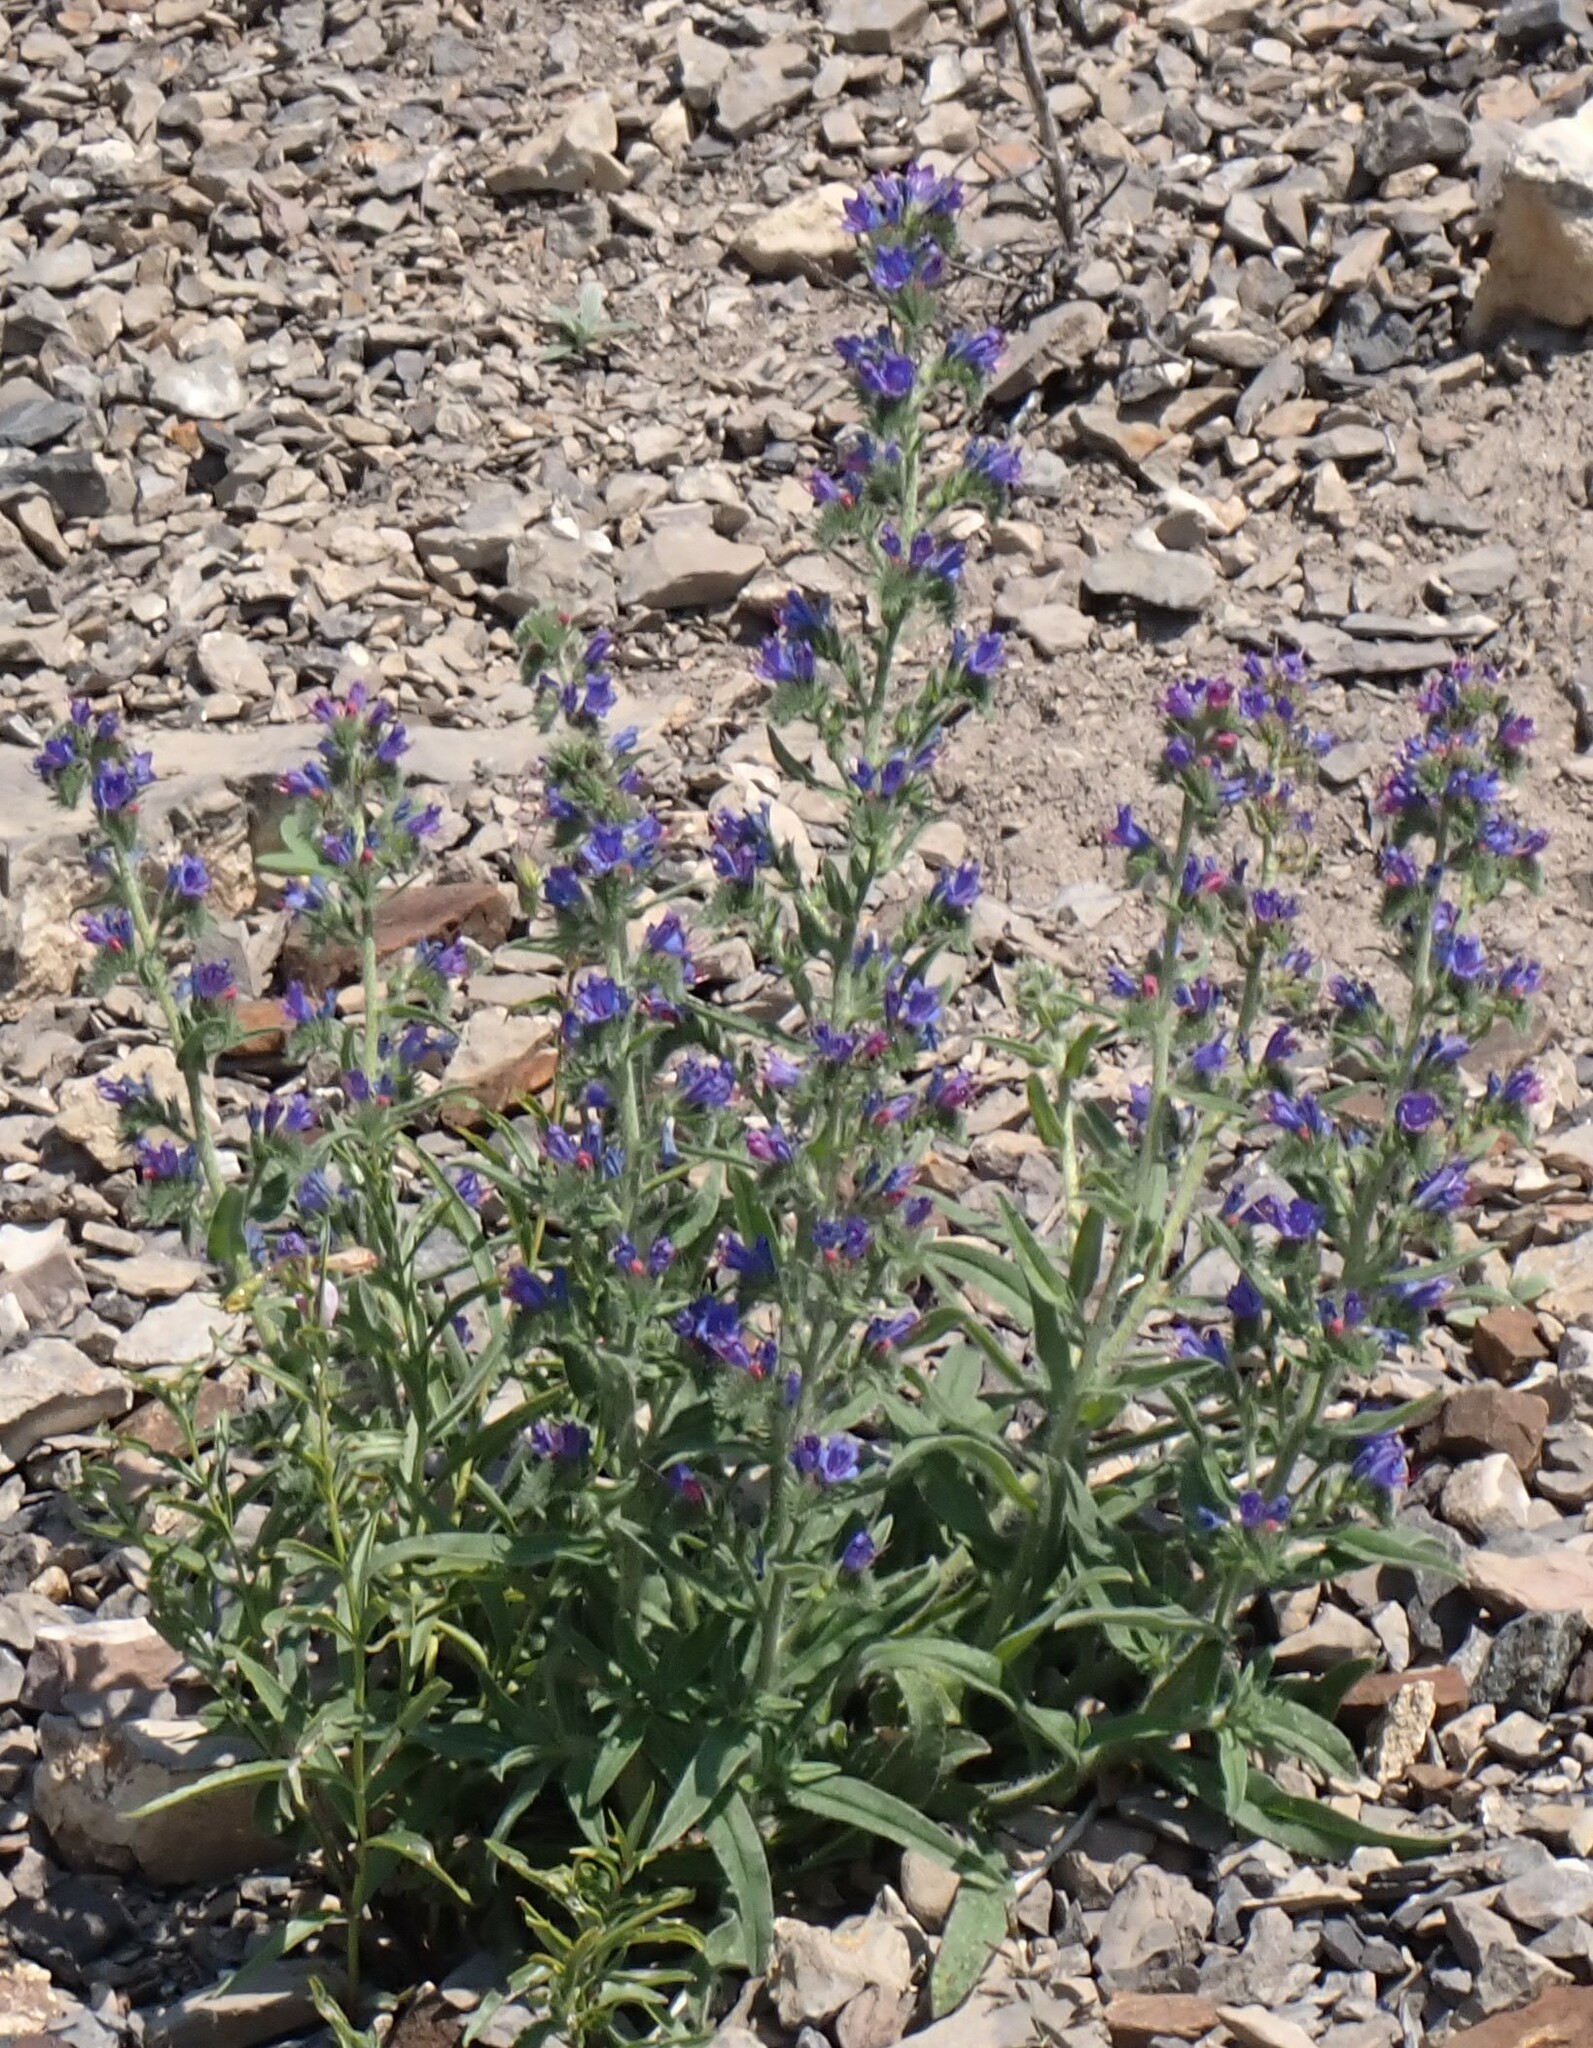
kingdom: Plantae
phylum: Tracheophyta
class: Magnoliopsida
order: Boraginales
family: Boraginaceae
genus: Echium
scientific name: Echium vulgare
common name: Common viper's bugloss
